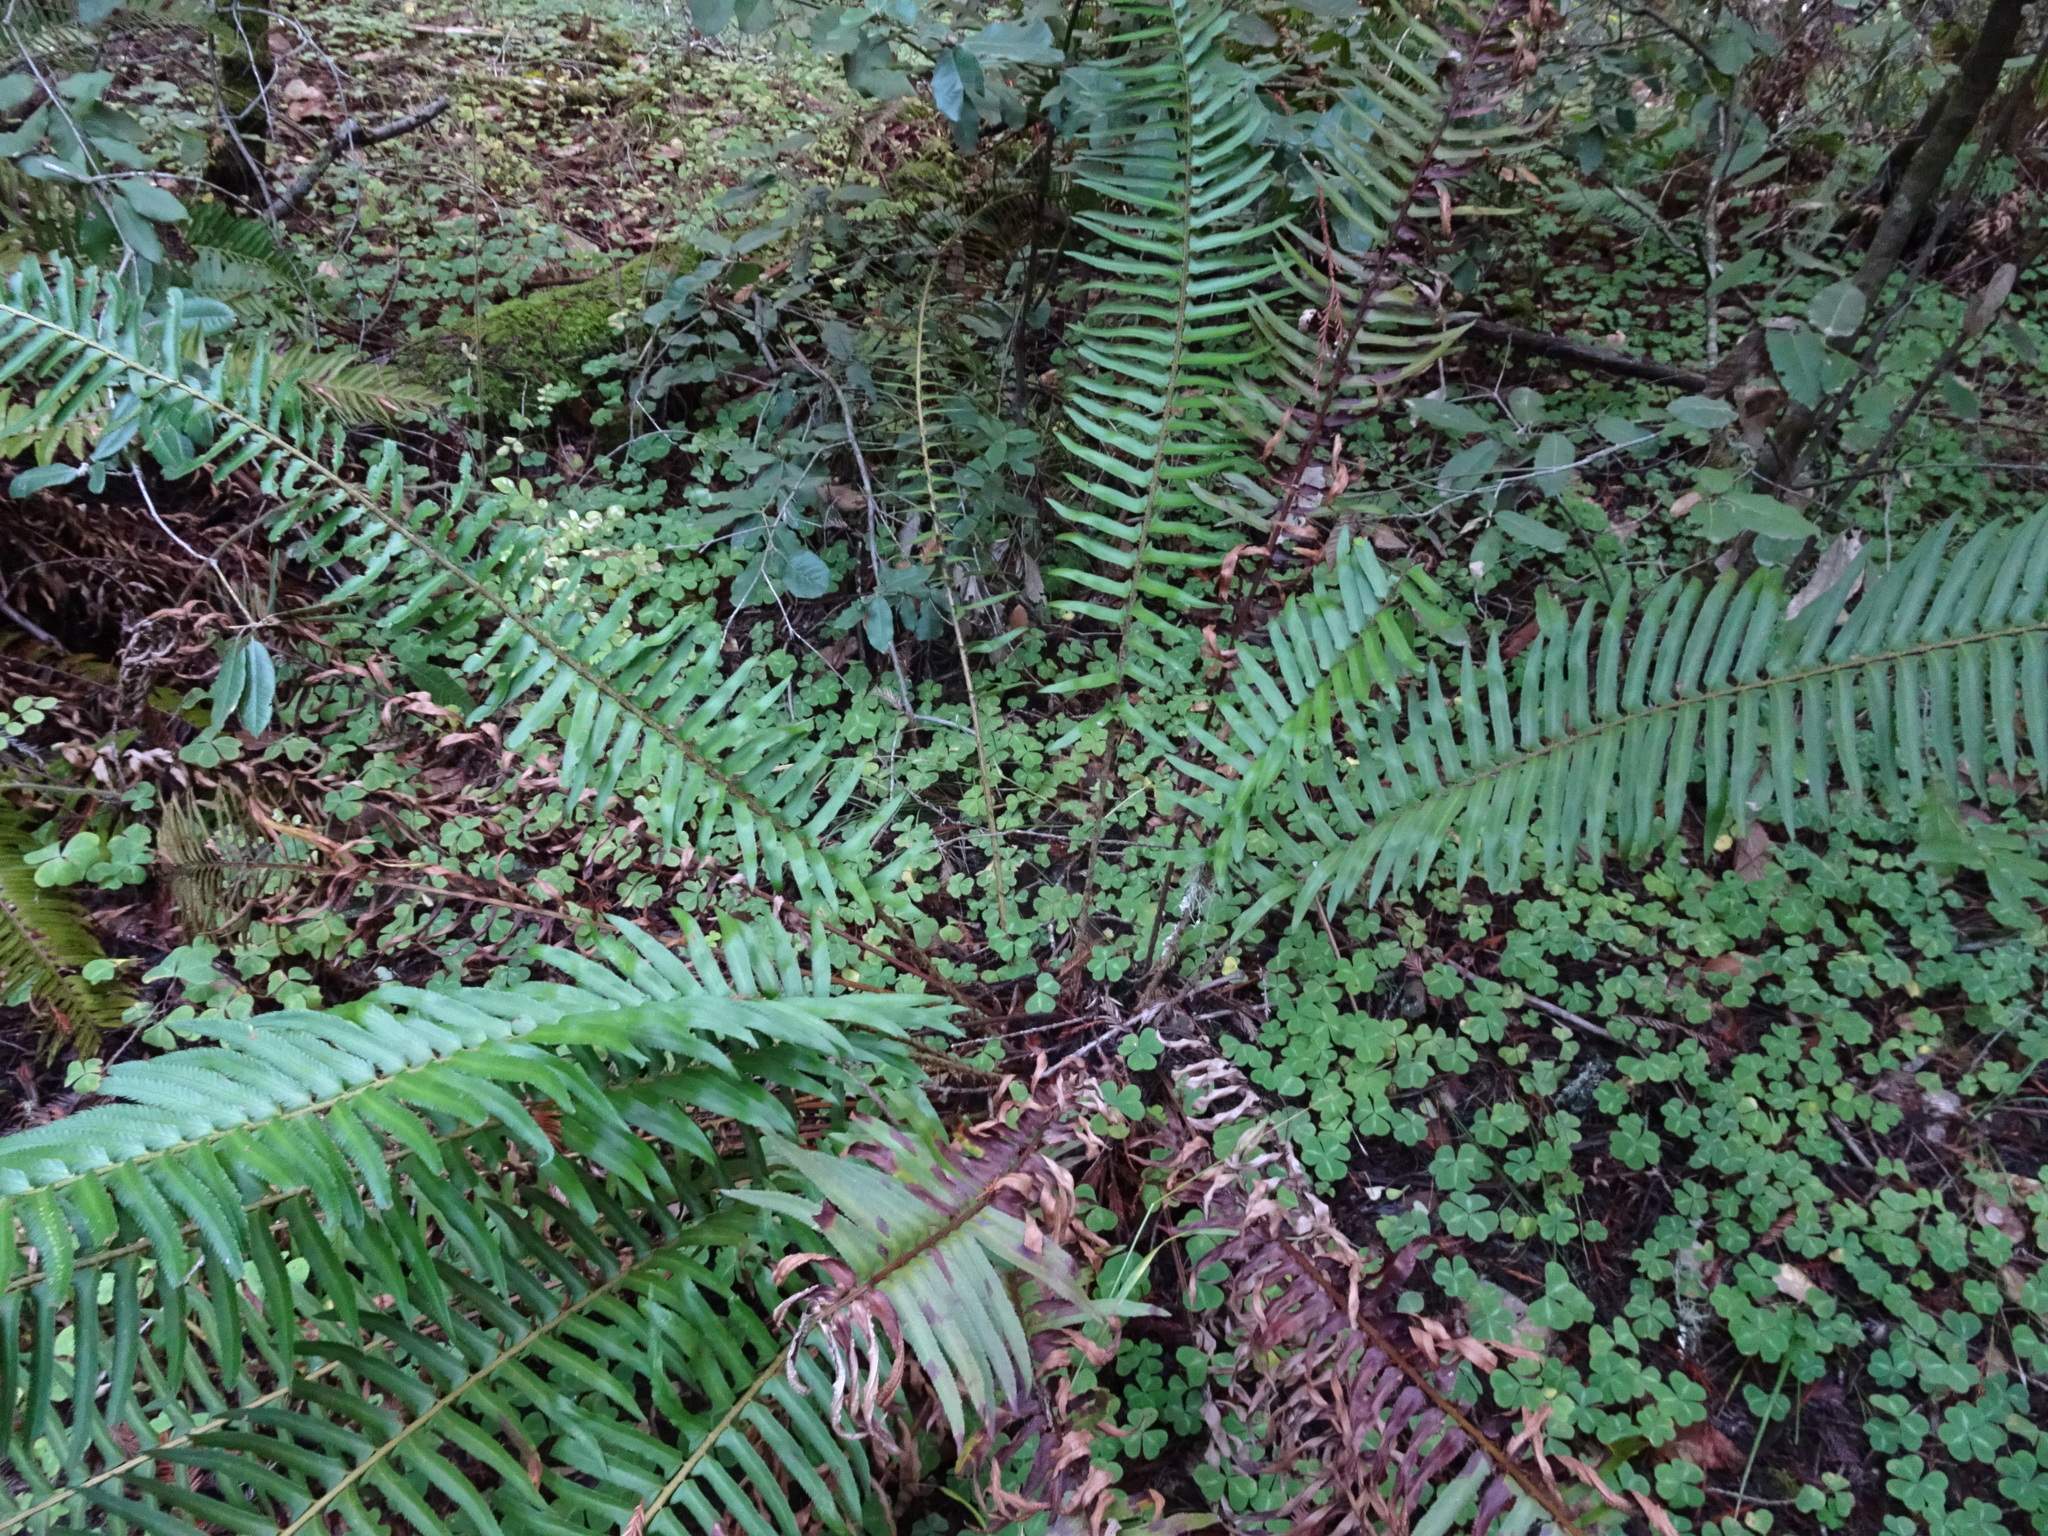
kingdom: Plantae
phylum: Tracheophyta
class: Polypodiopsida
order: Polypodiales
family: Dryopteridaceae
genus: Polystichum
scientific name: Polystichum munitum
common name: Western sword-fern
